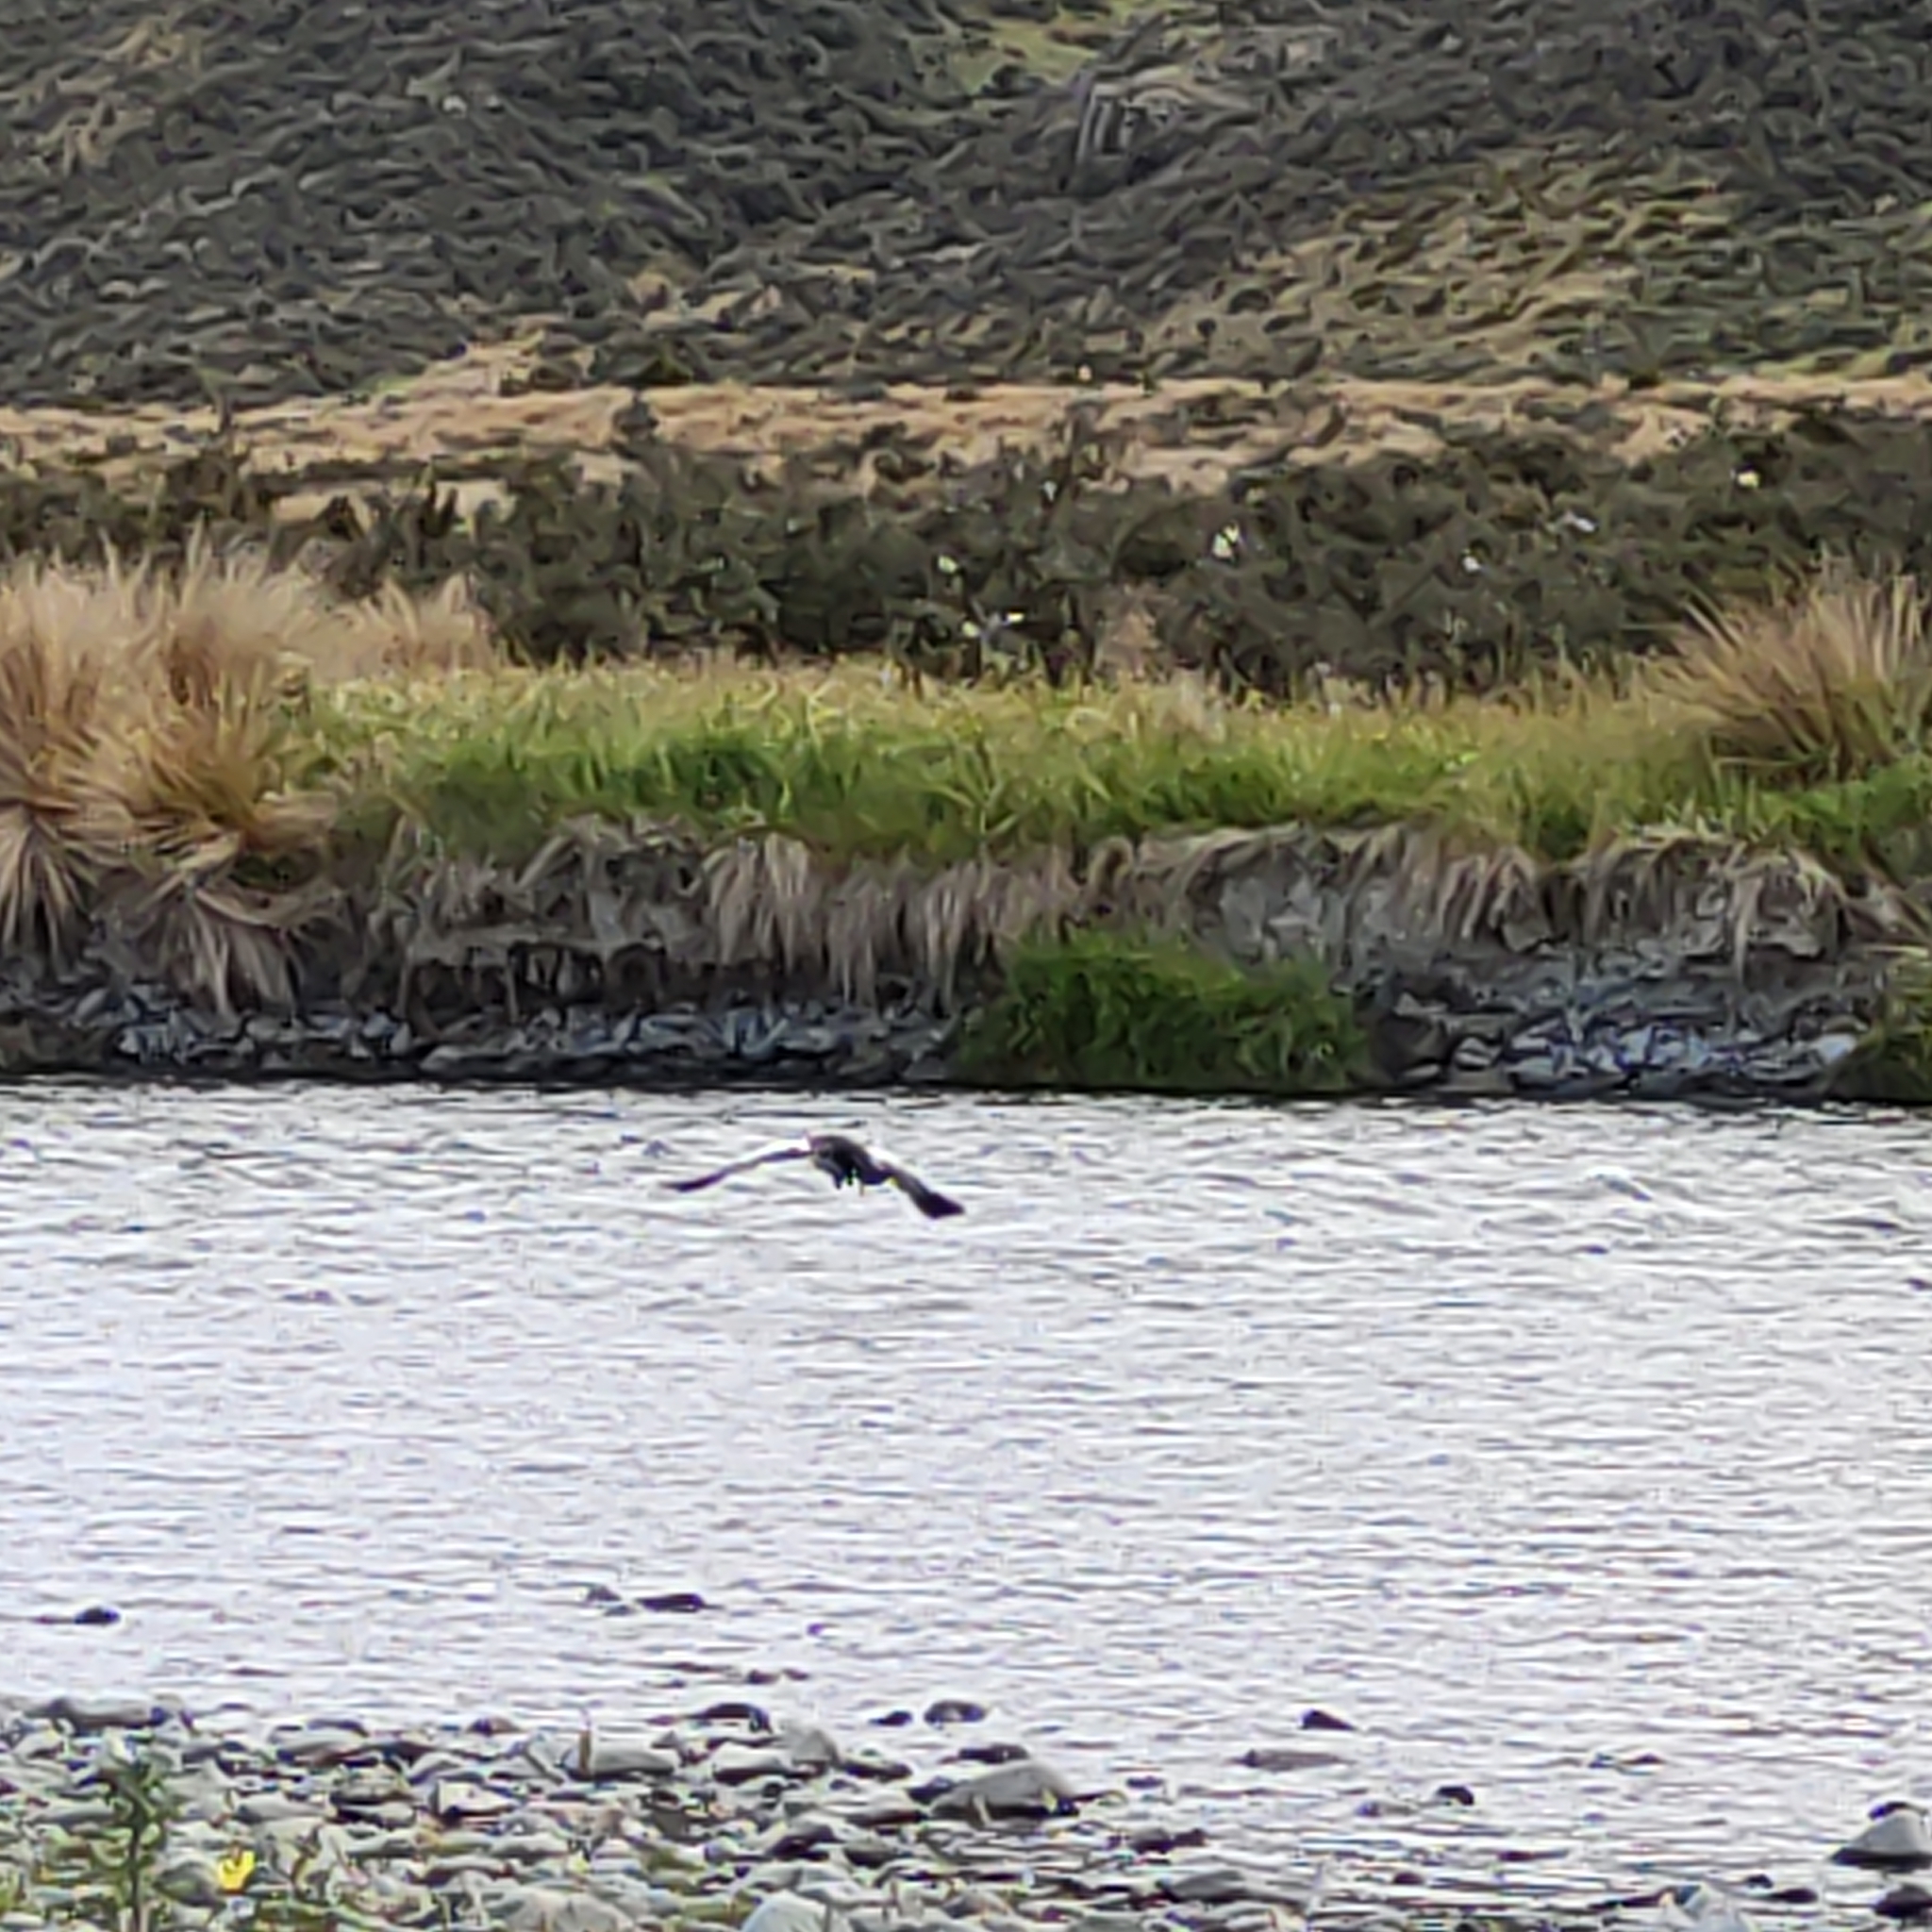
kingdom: Animalia
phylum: Chordata
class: Aves
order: Anseriformes
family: Anatidae
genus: Tadorna
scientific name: Tadorna variegata
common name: Paradise shelduck
